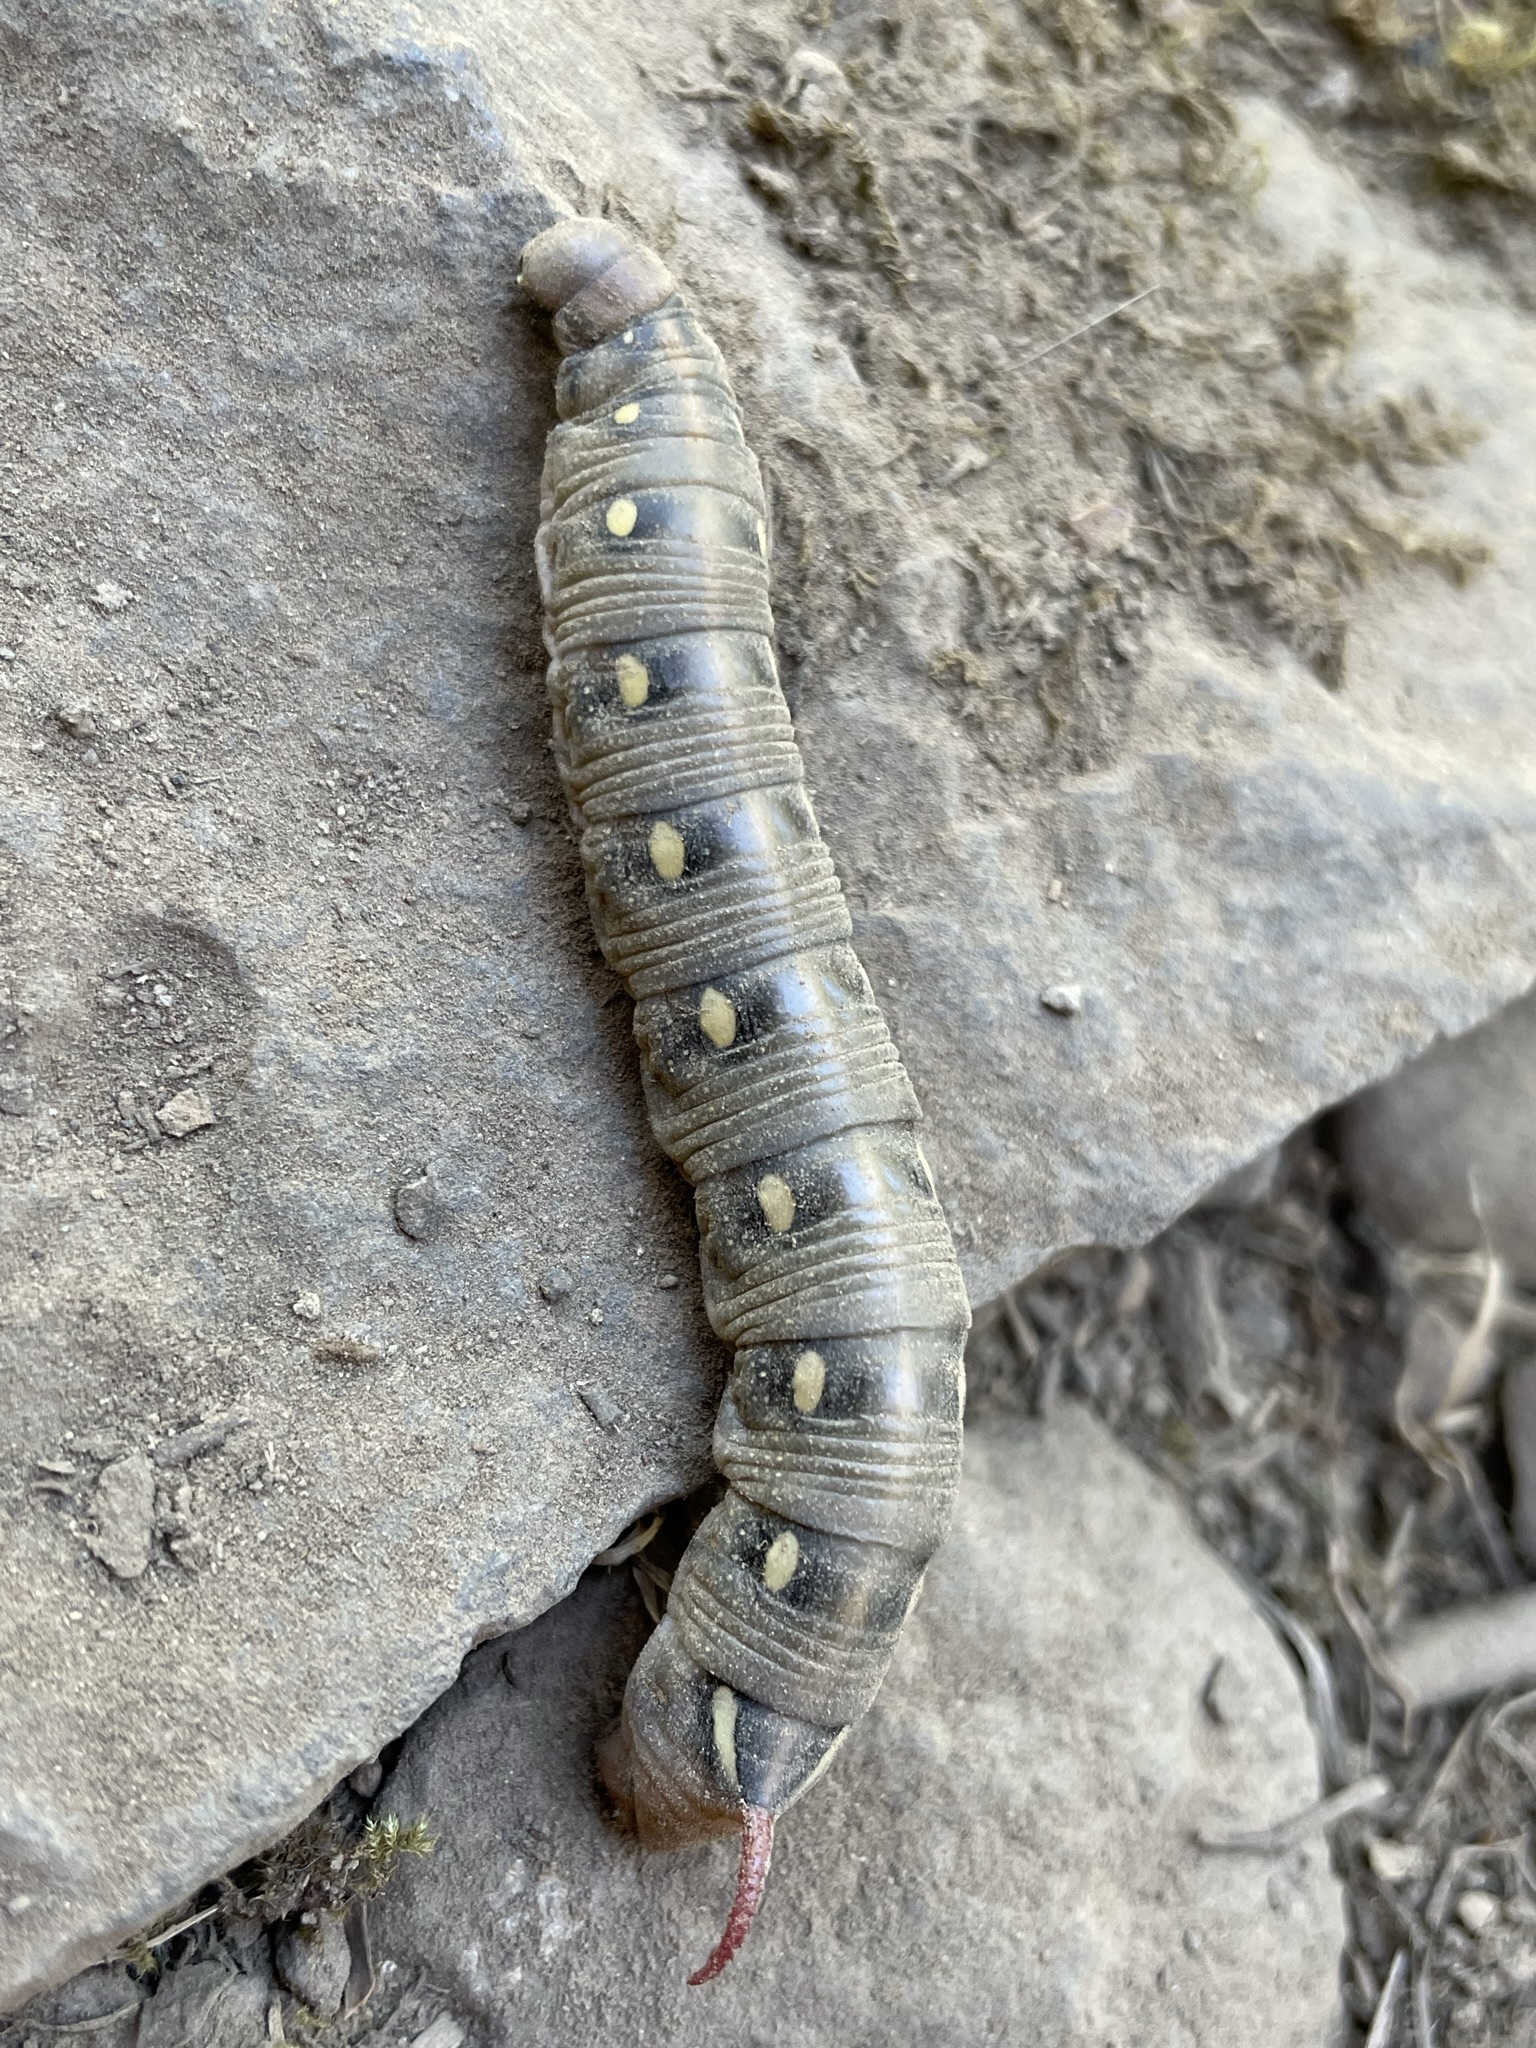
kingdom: Animalia
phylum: Arthropoda
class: Insecta
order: Lepidoptera
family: Sphingidae
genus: Hyles
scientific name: Hyles gallii
